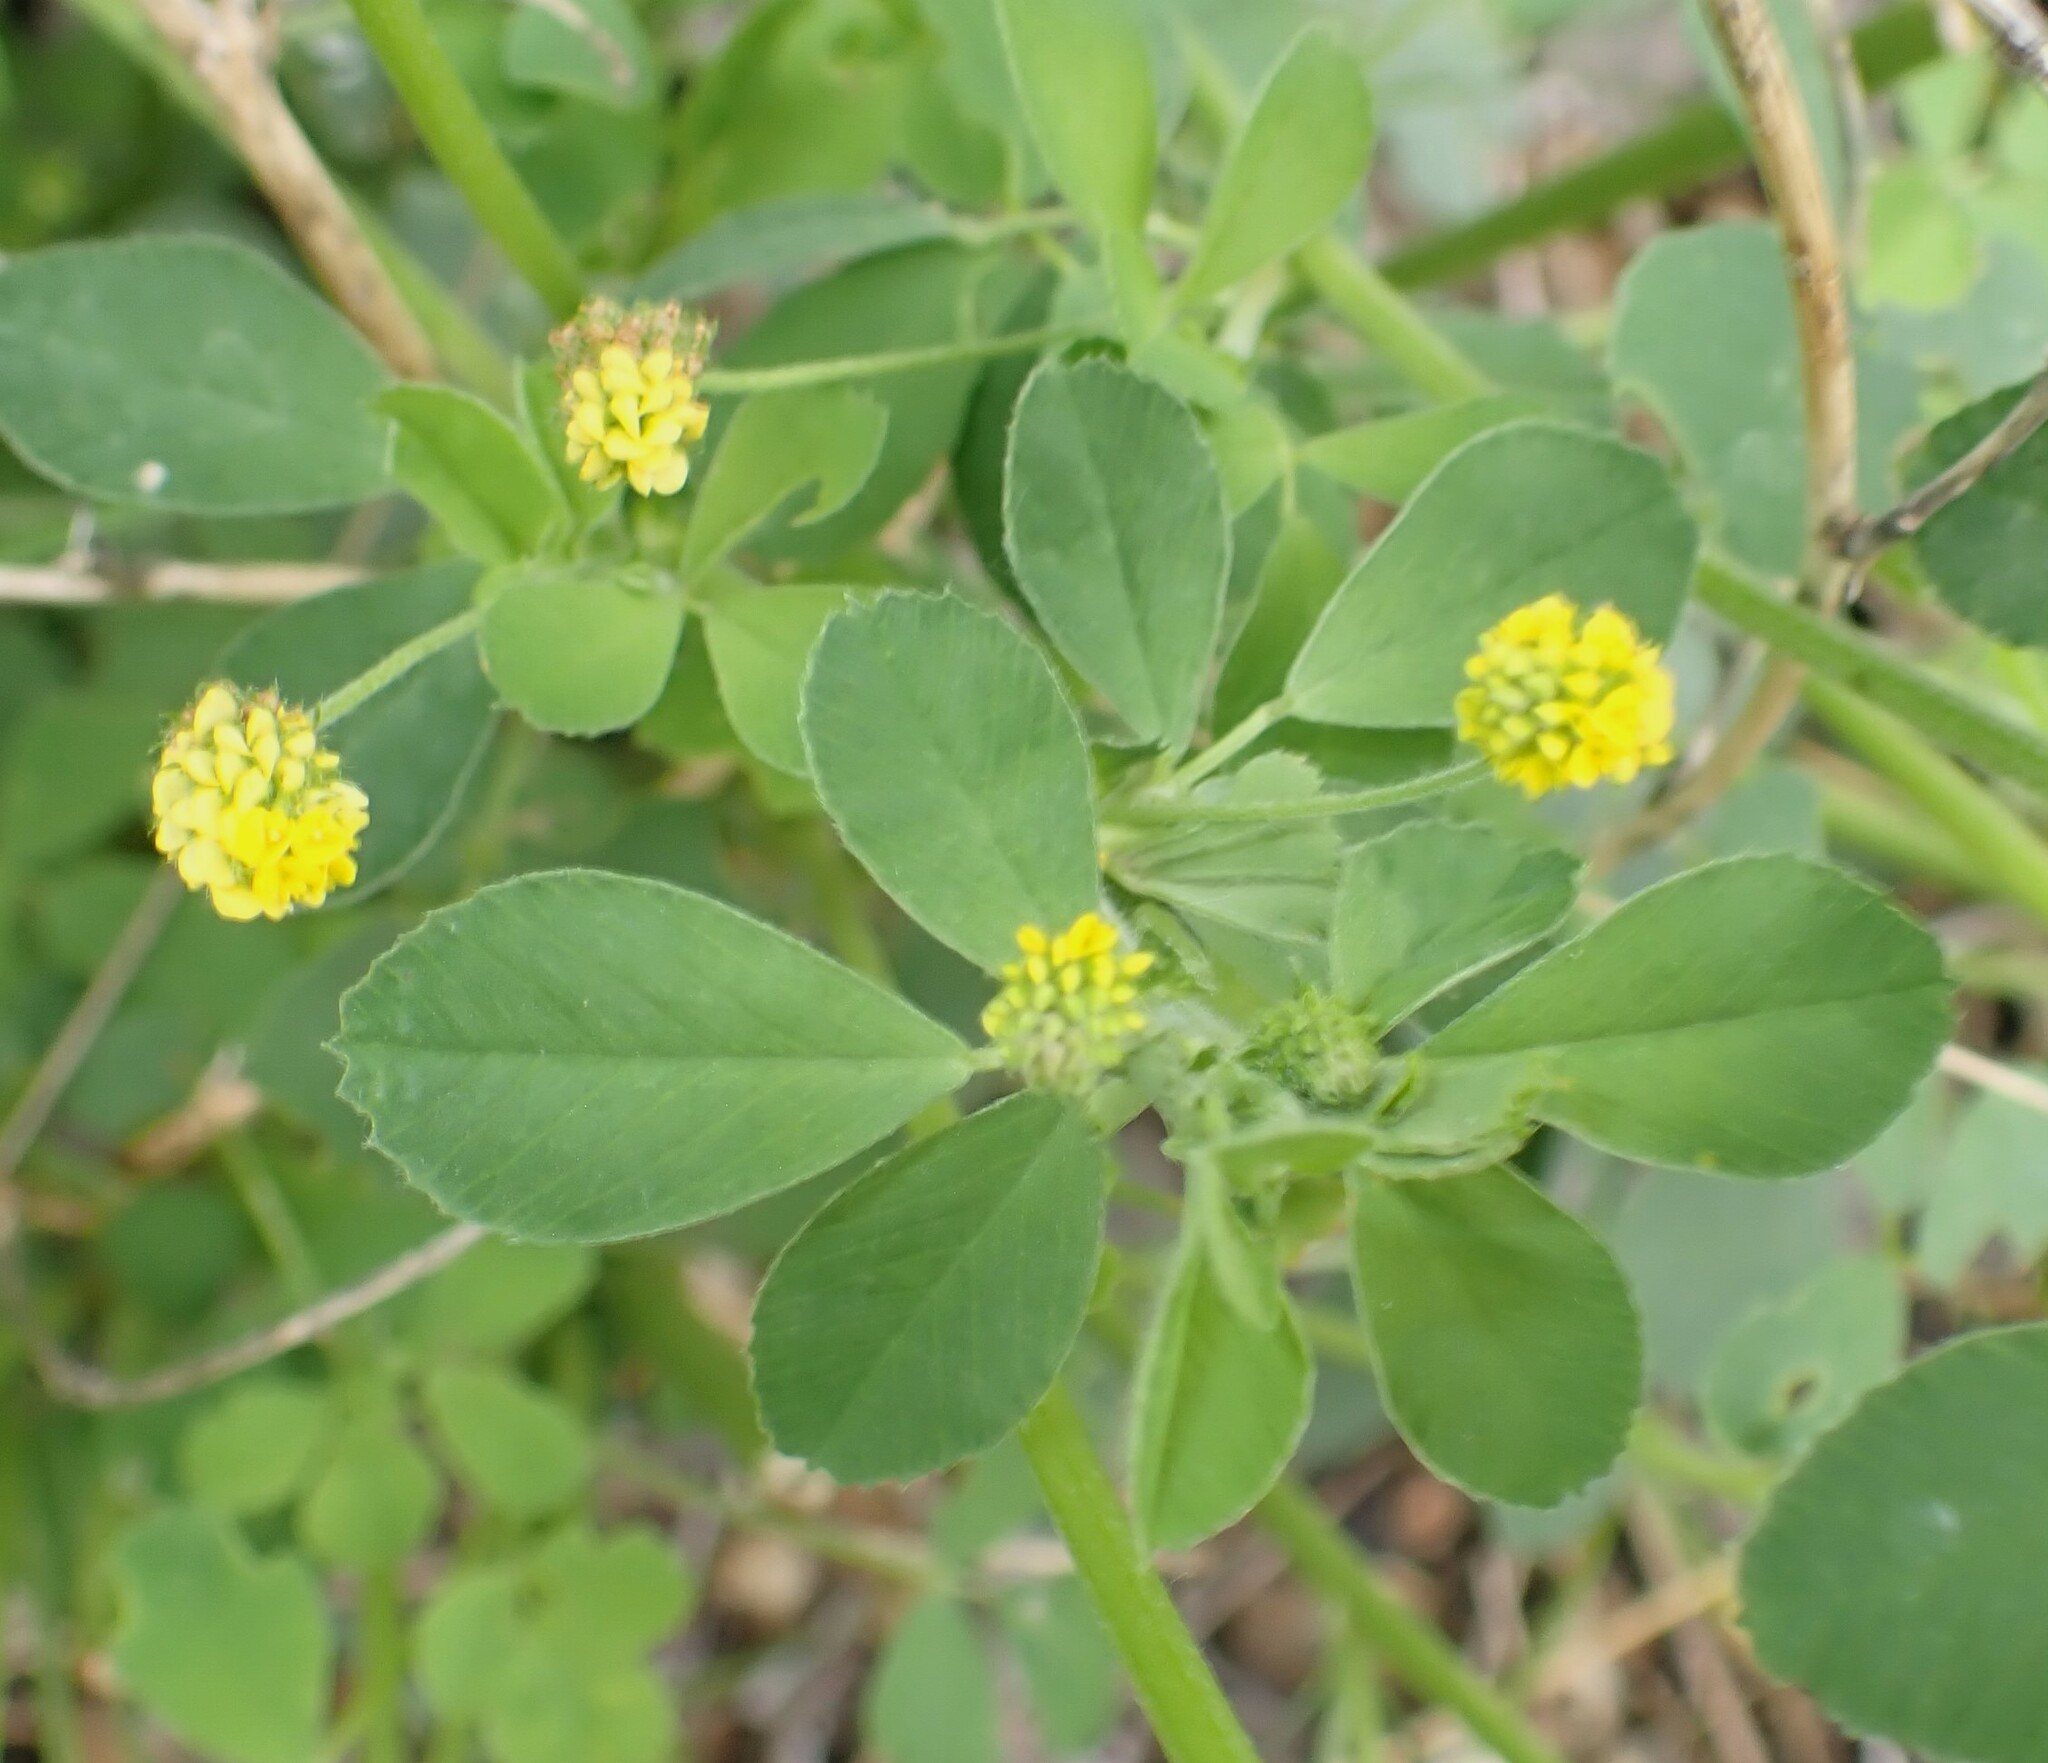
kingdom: Plantae
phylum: Tracheophyta
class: Magnoliopsida
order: Fabales
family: Fabaceae
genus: Medicago
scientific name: Medicago lupulina
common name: Black medick
